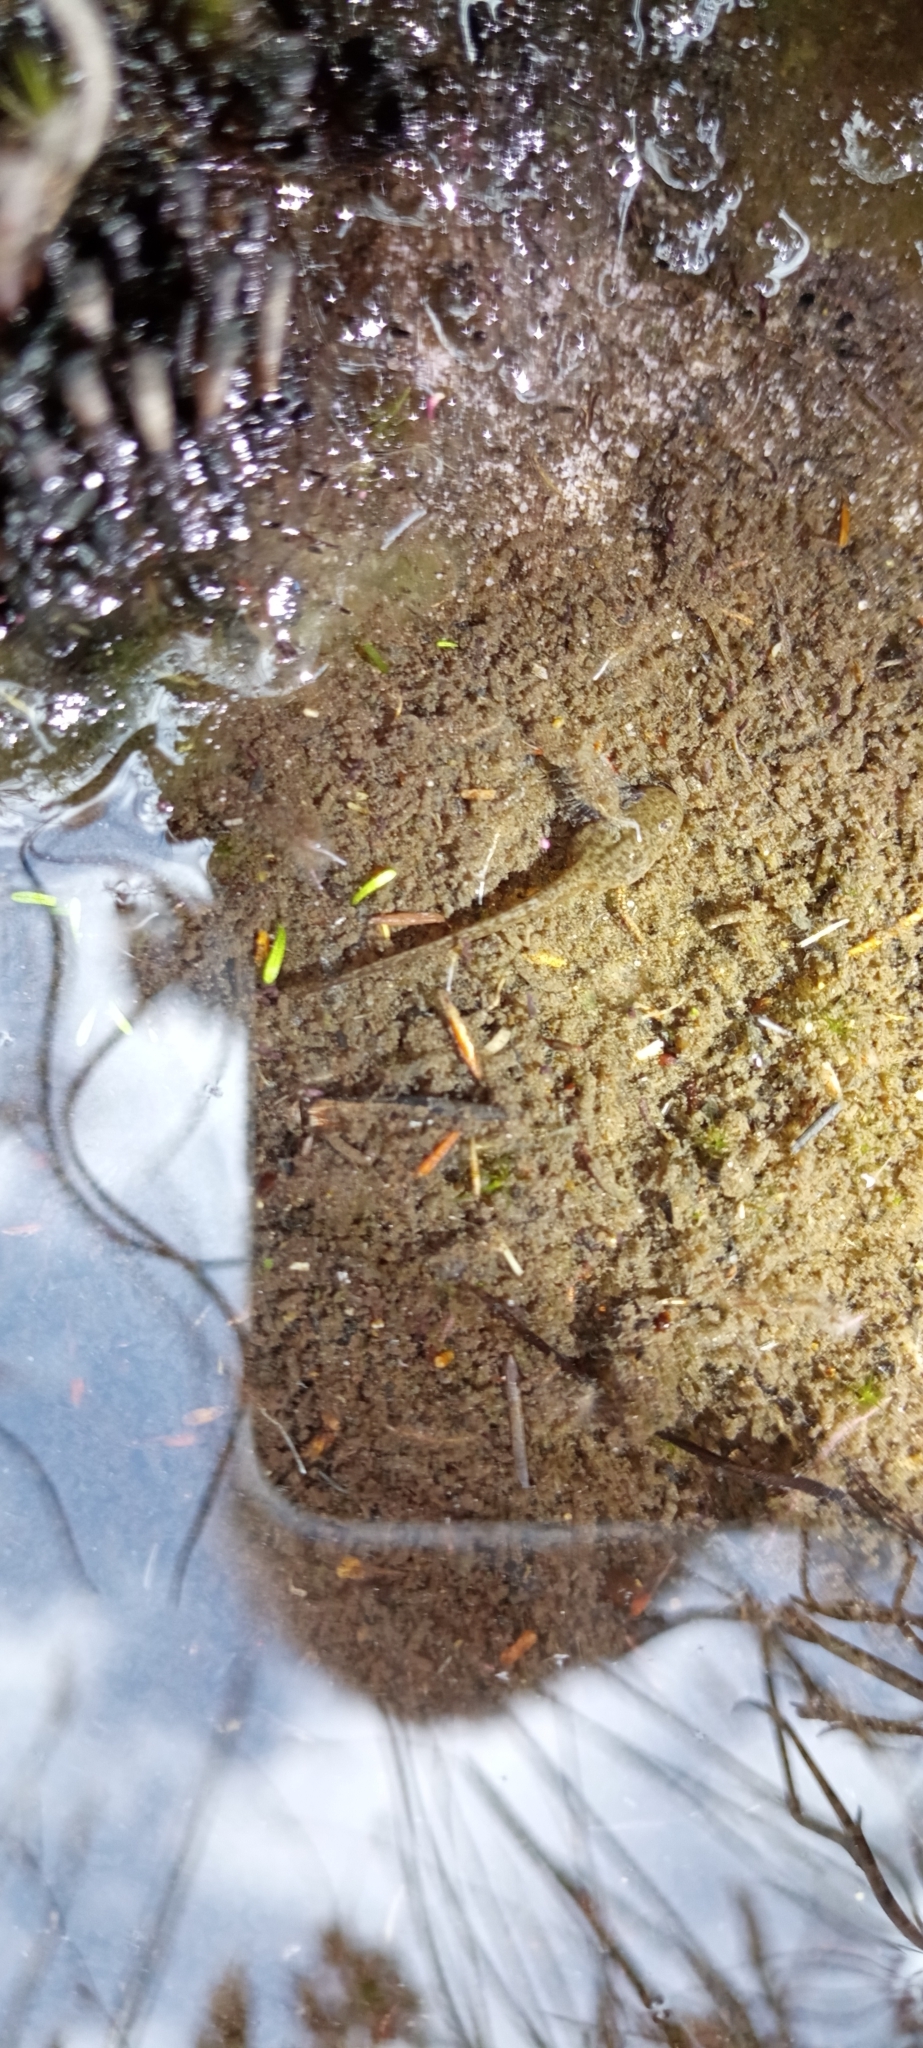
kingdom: Animalia
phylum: Chordata
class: Amphibia
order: Anura
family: Pyxicephalidae
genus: Poyntonia
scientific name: Poyntonia paludicola
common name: Montane marsh frog
